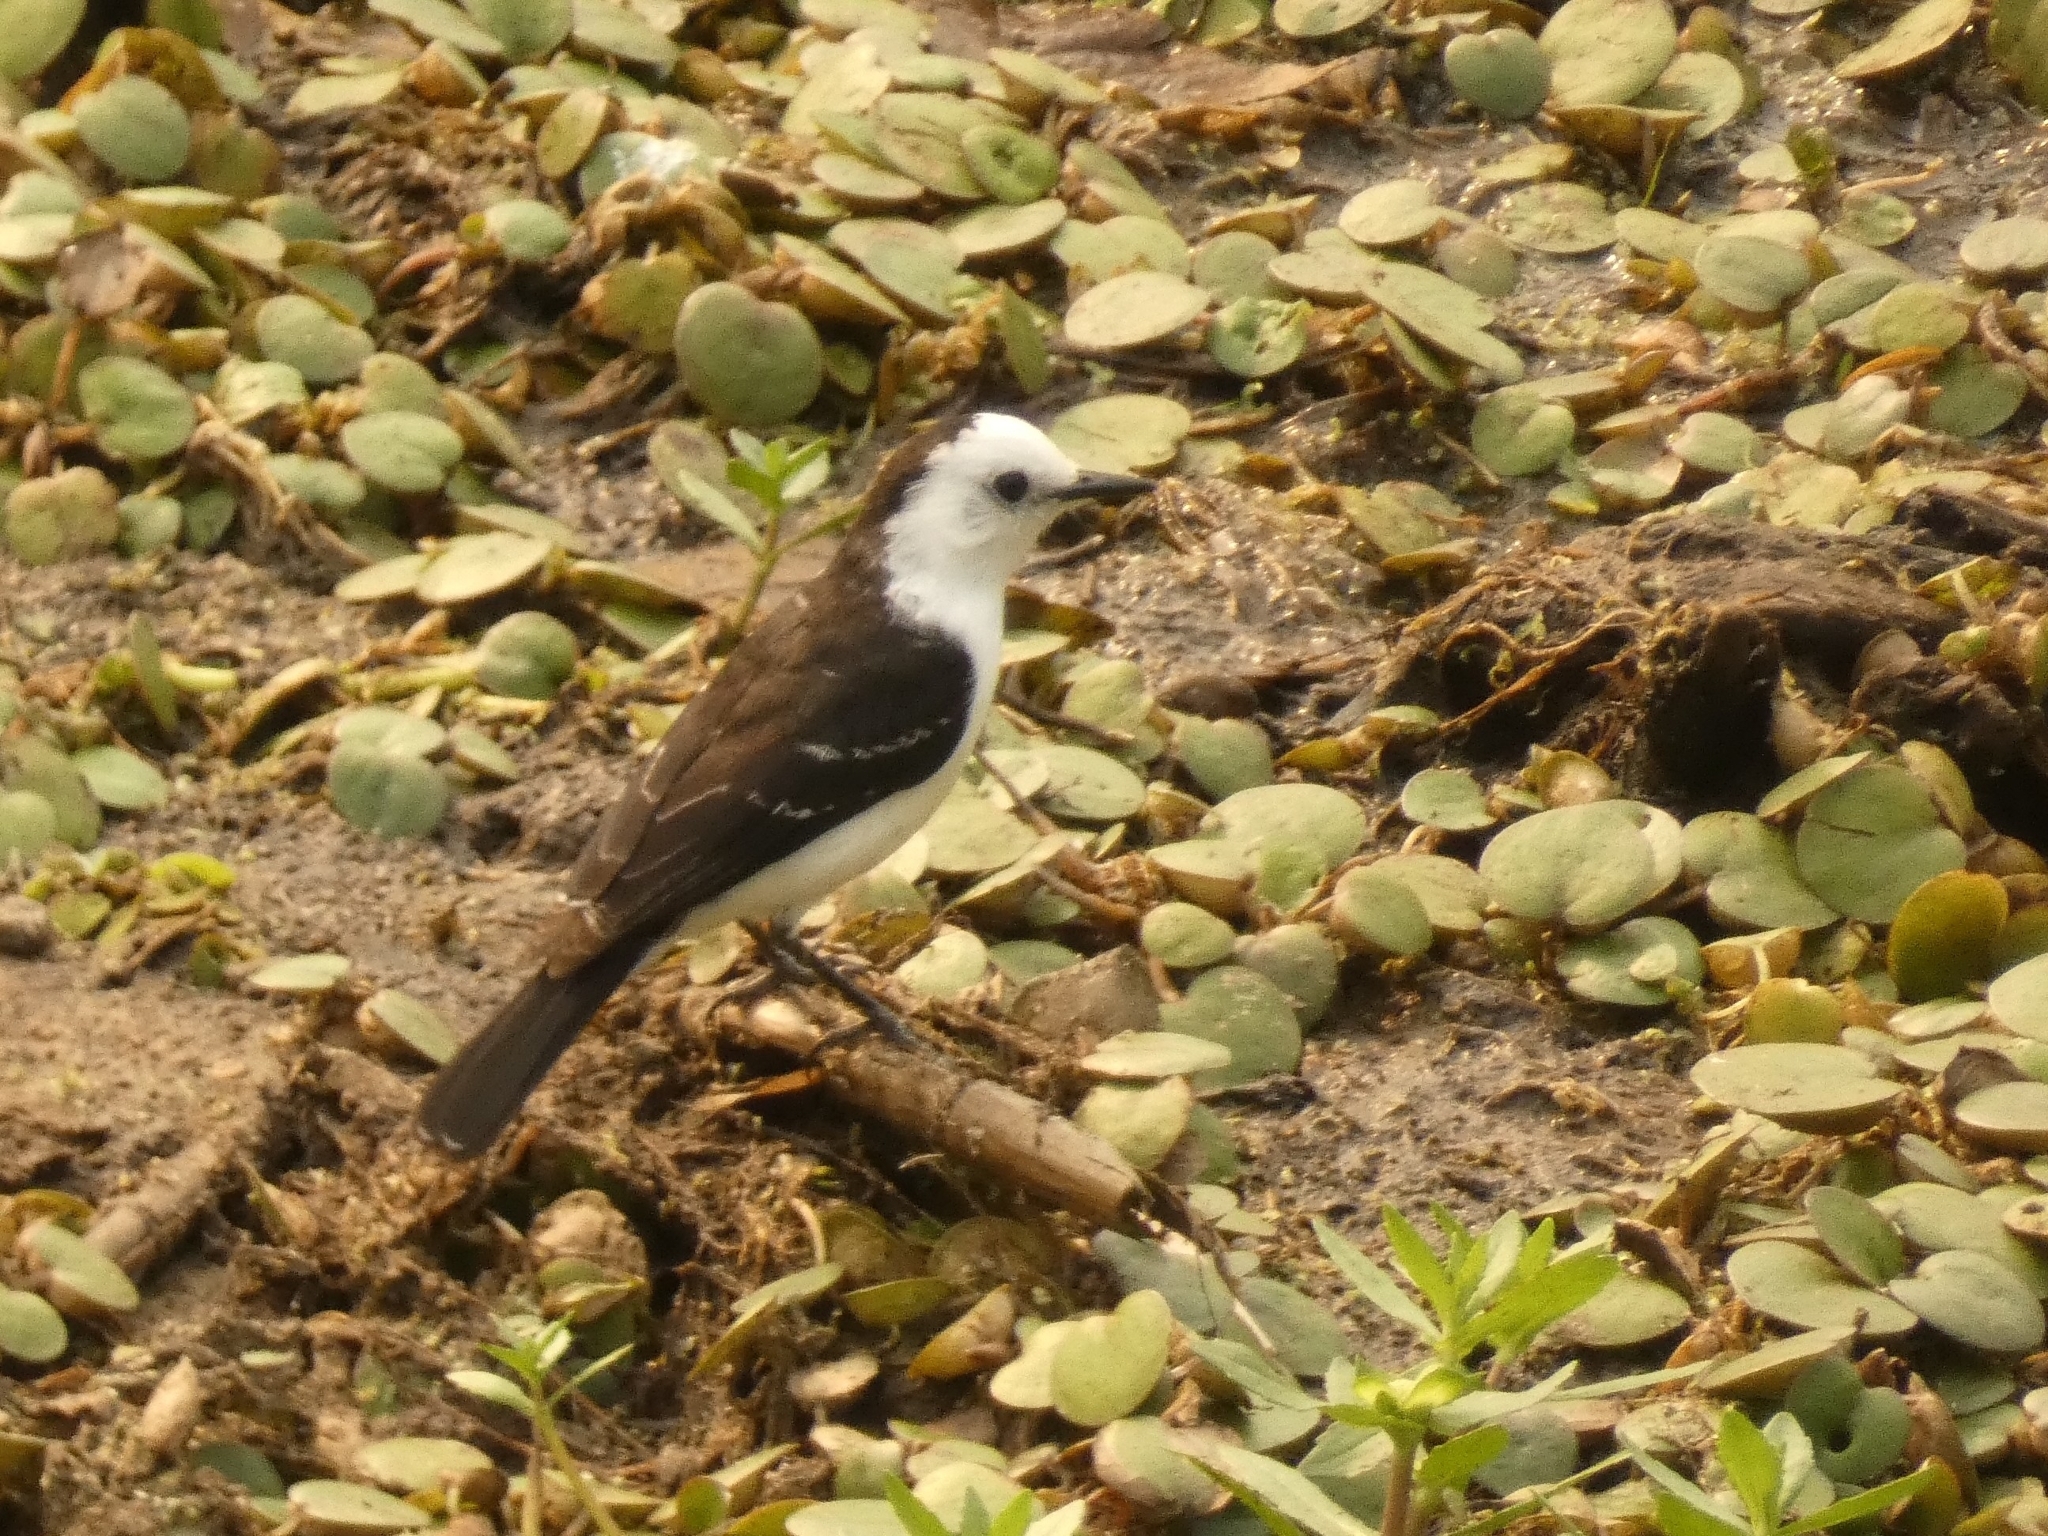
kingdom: Animalia
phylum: Chordata
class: Aves
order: Passeriformes
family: Tyrannidae
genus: Fluvicola
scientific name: Fluvicola pica
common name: Pied water-tyrant
